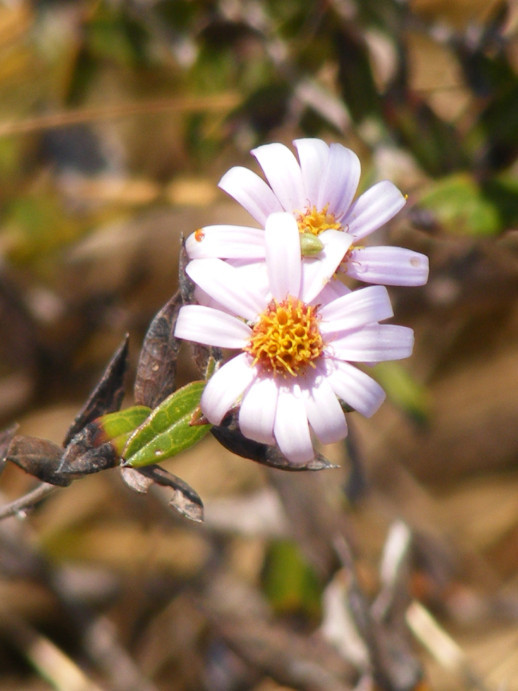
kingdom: Plantae
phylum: Tracheophyta
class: Magnoliopsida
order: Asterales
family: Asteraceae
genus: Athrixia
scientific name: Athrixia phylicoides
